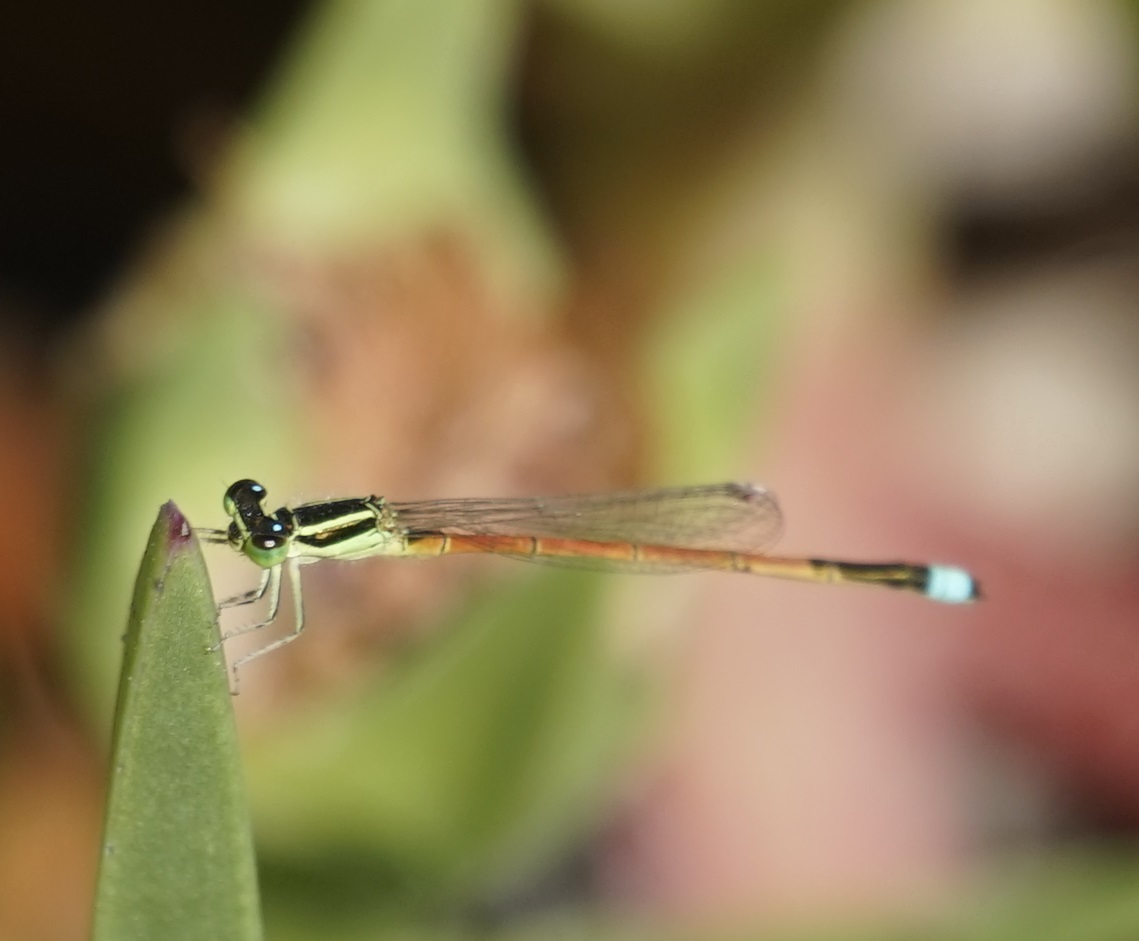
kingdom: Animalia
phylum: Arthropoda
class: Insecta
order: Odonata
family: Coenagrionidae
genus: Ischnura
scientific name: Ischnura aurora
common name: Gossamer damselfly
